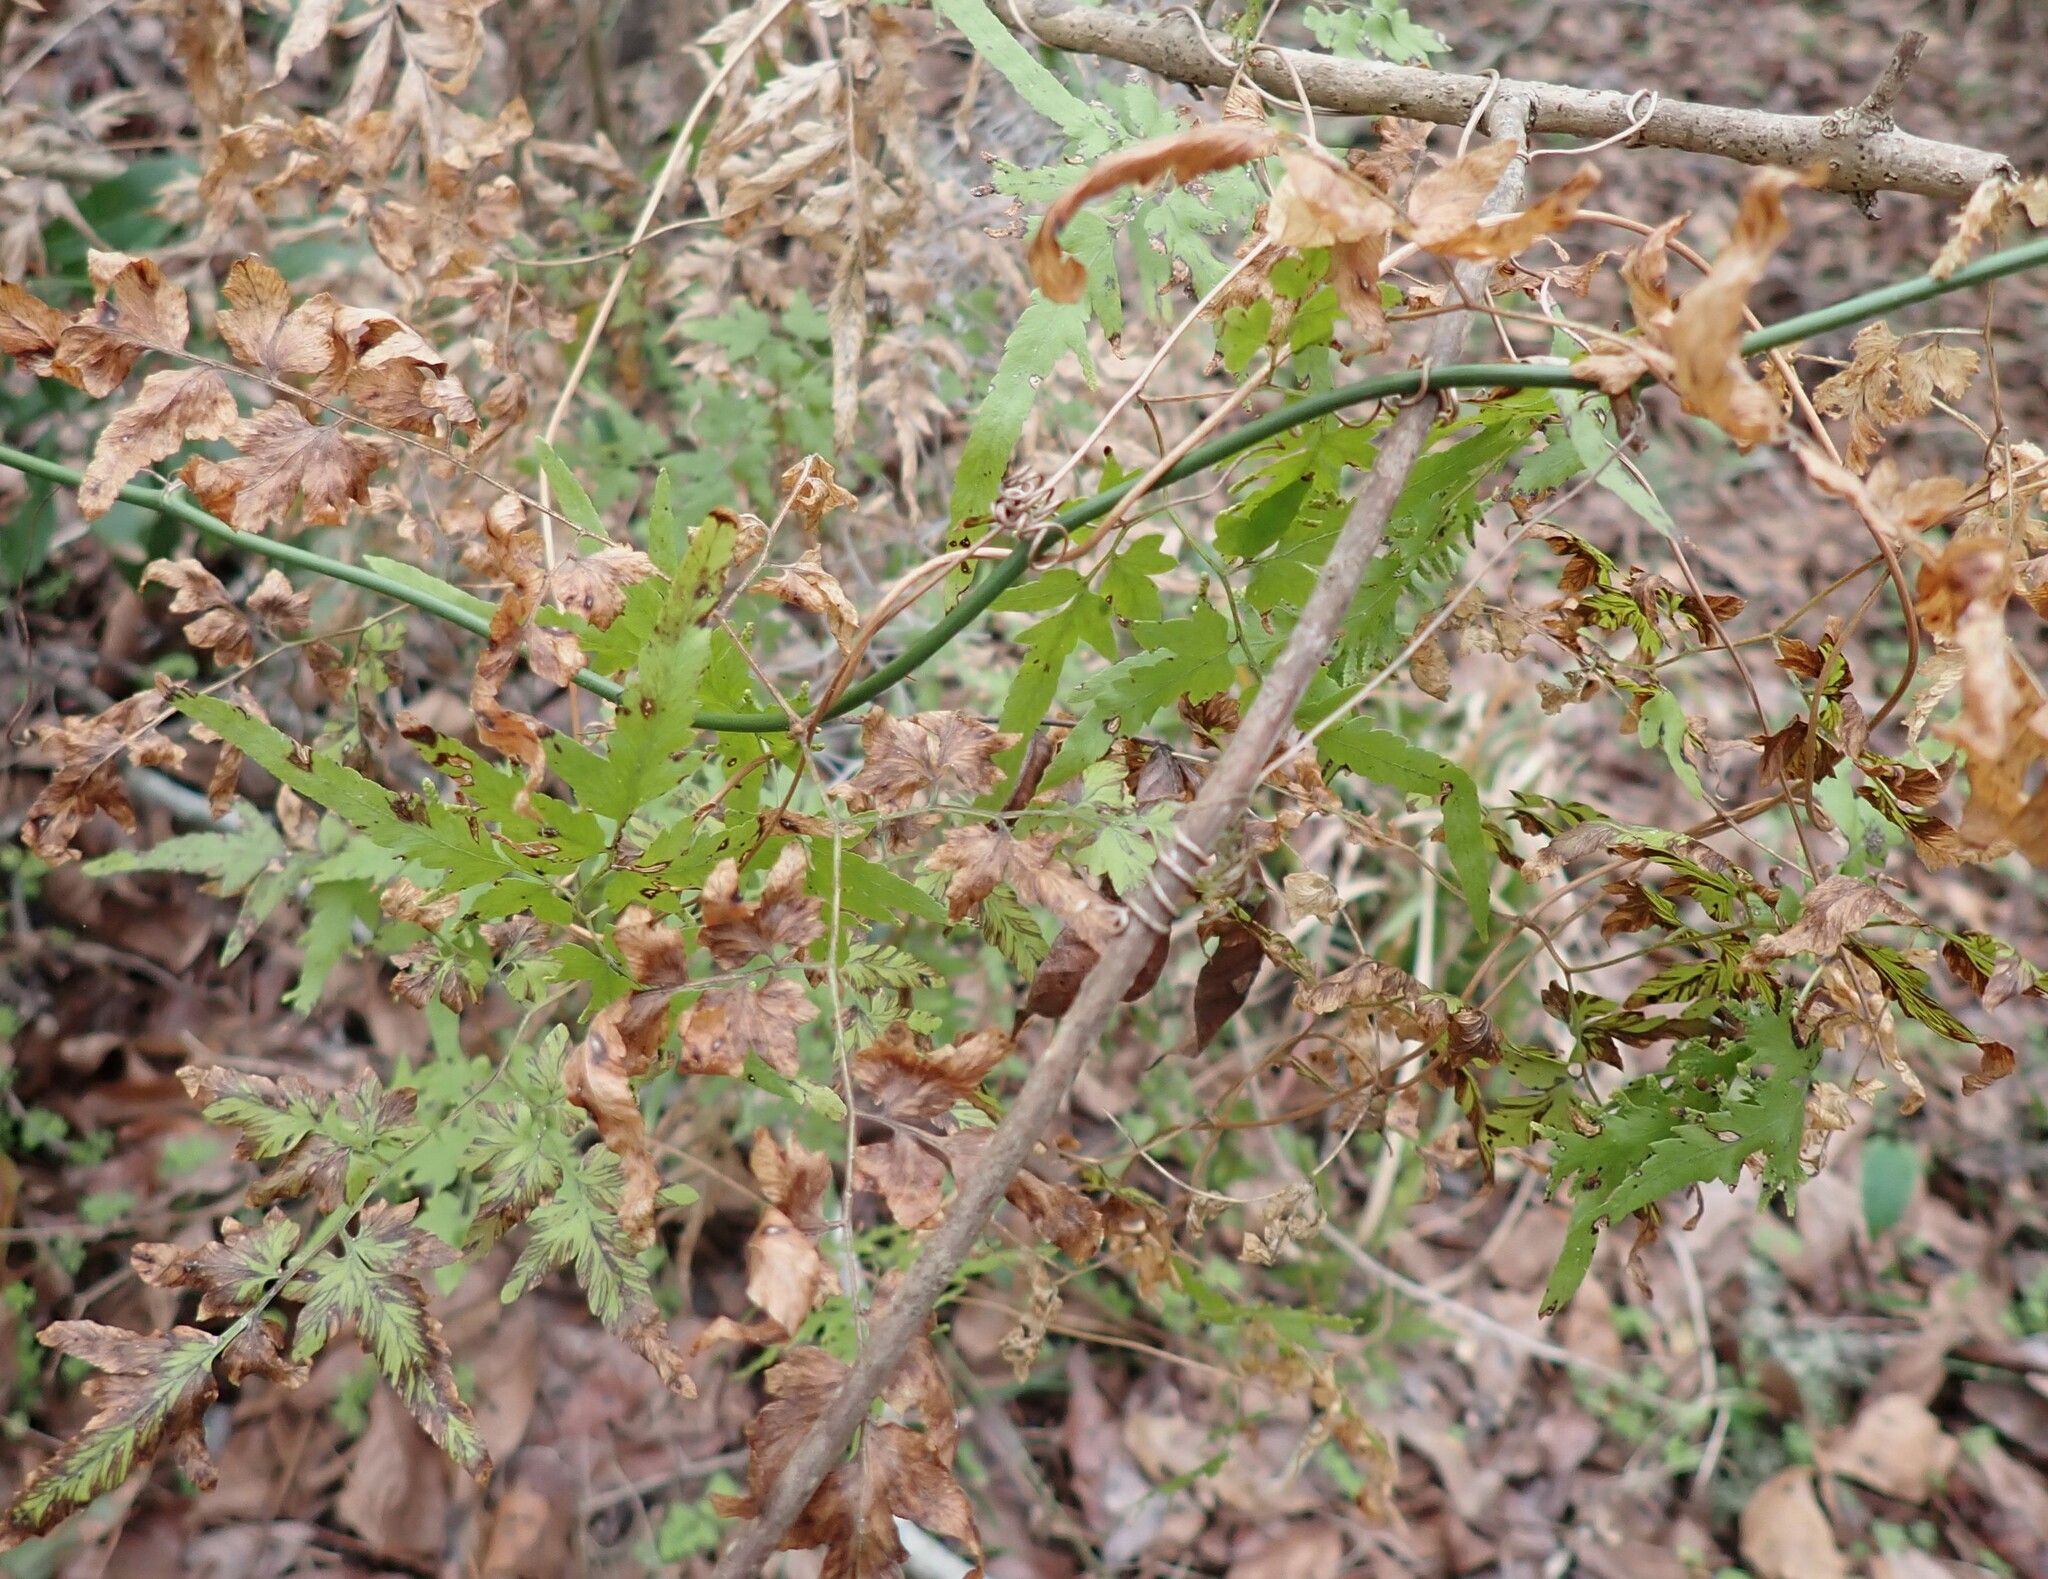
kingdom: Plantae
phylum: Tracheophyta
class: Polypodiopsida
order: Schizaeales
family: Lygodiaceae
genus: Lygodium
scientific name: Lygodium japonicum
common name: Japanese climbing fern
